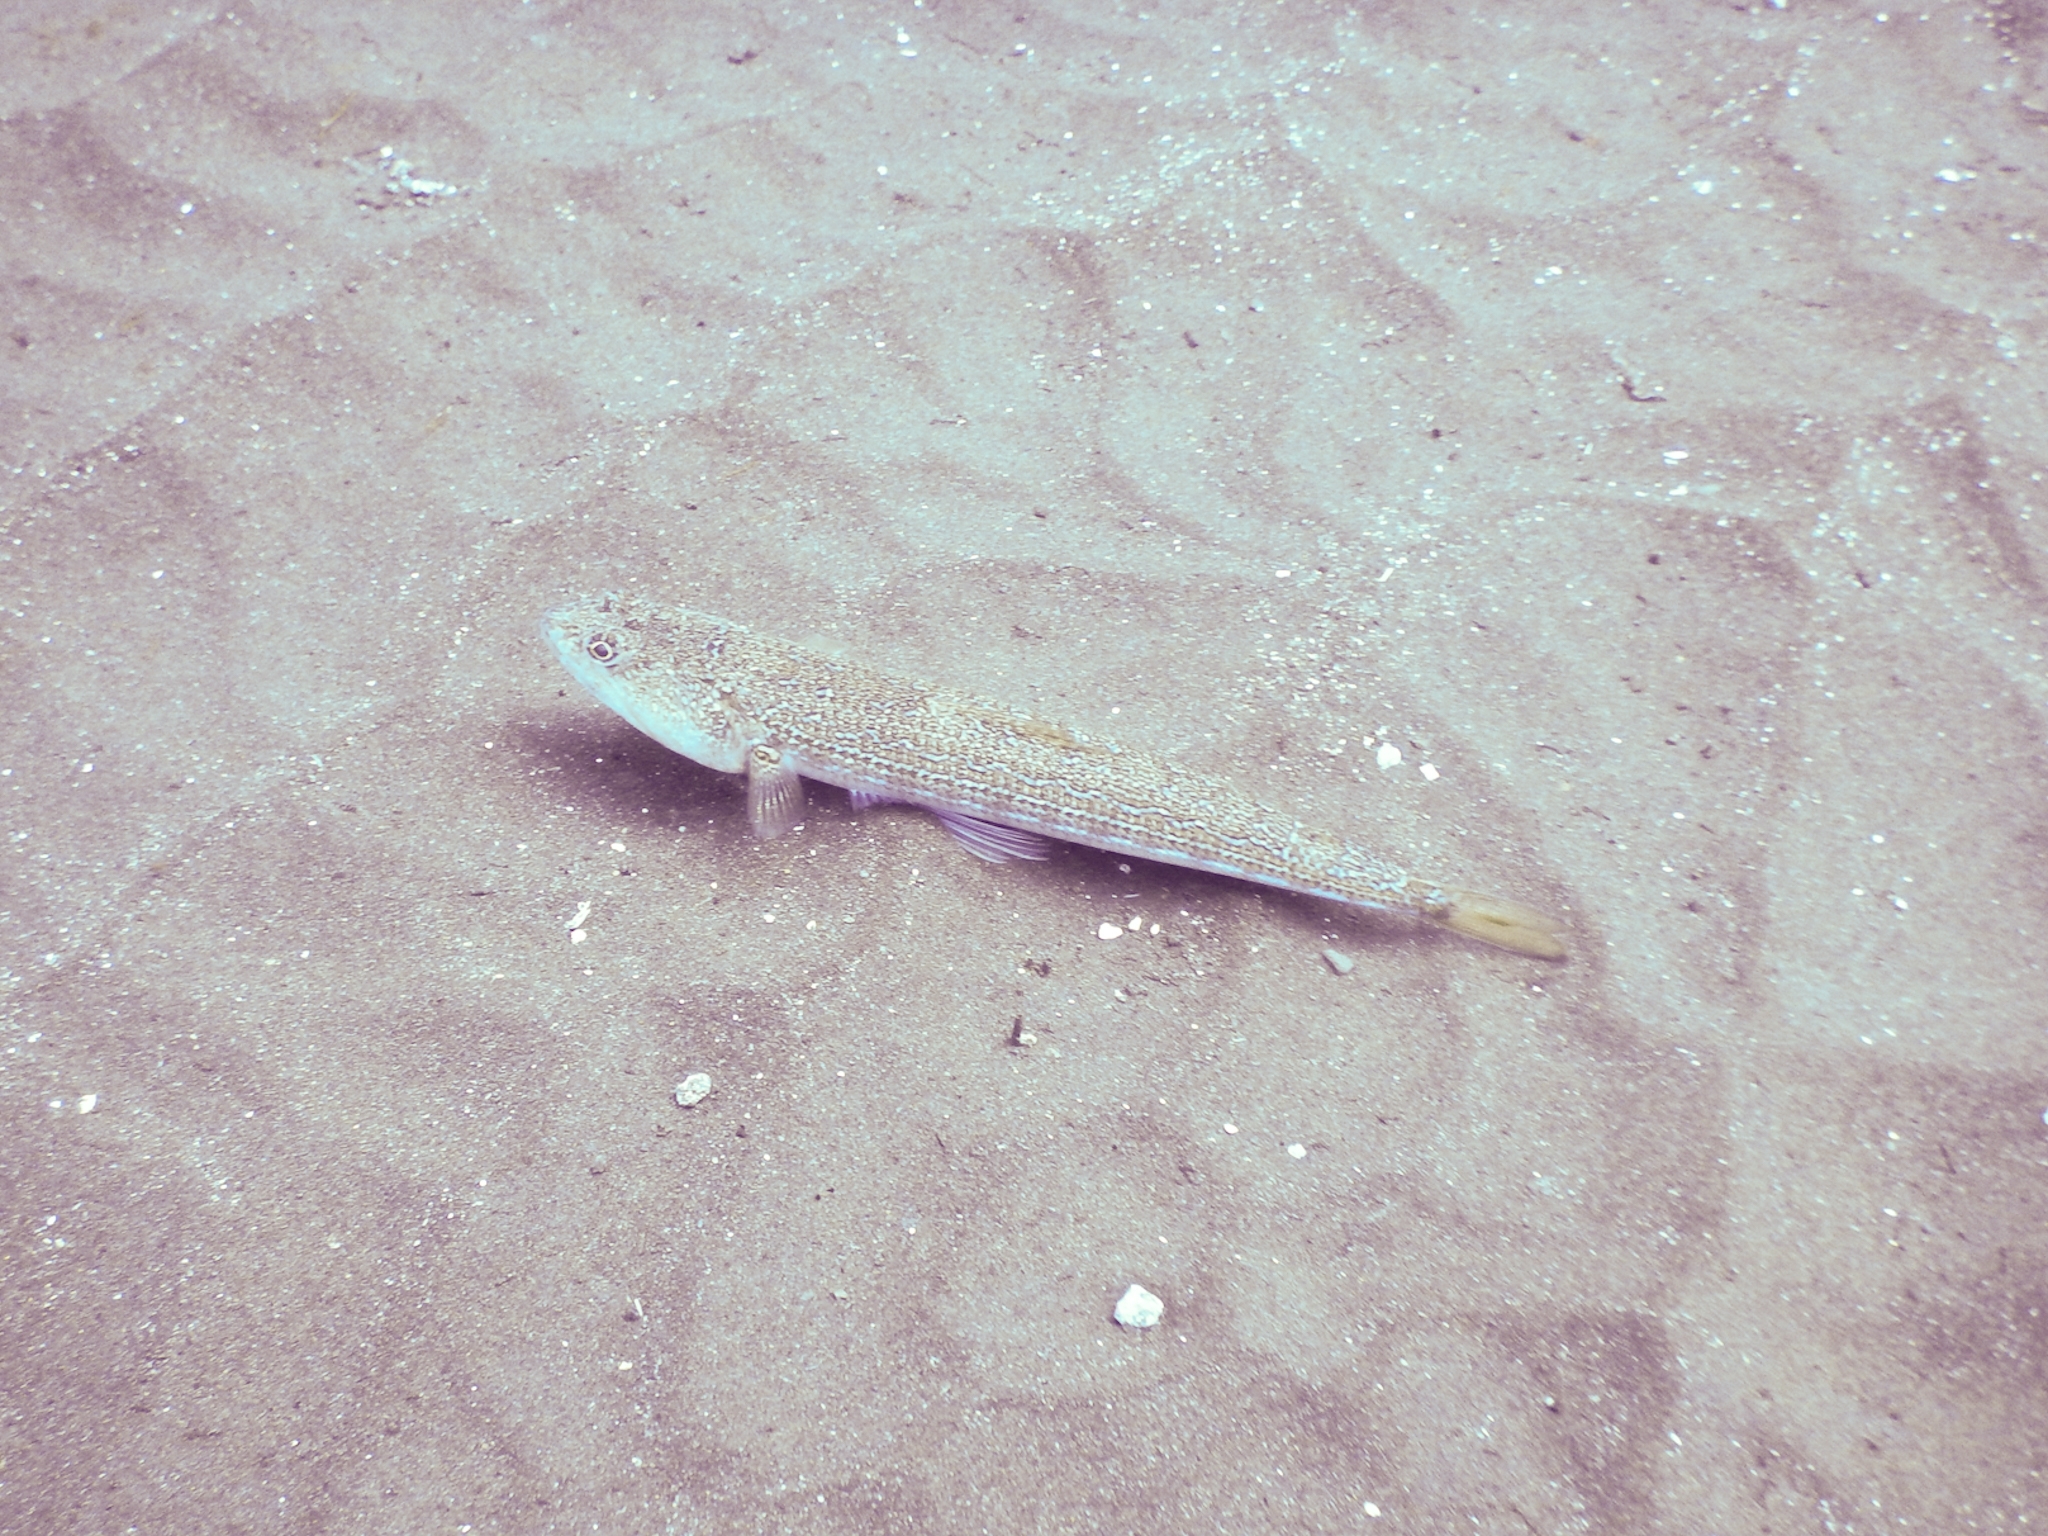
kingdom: Animalia
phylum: Chordata
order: Aulopiformes
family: Synodontidae
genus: Synodus
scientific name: Synodus saurus
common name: Atlantic lizardfish
